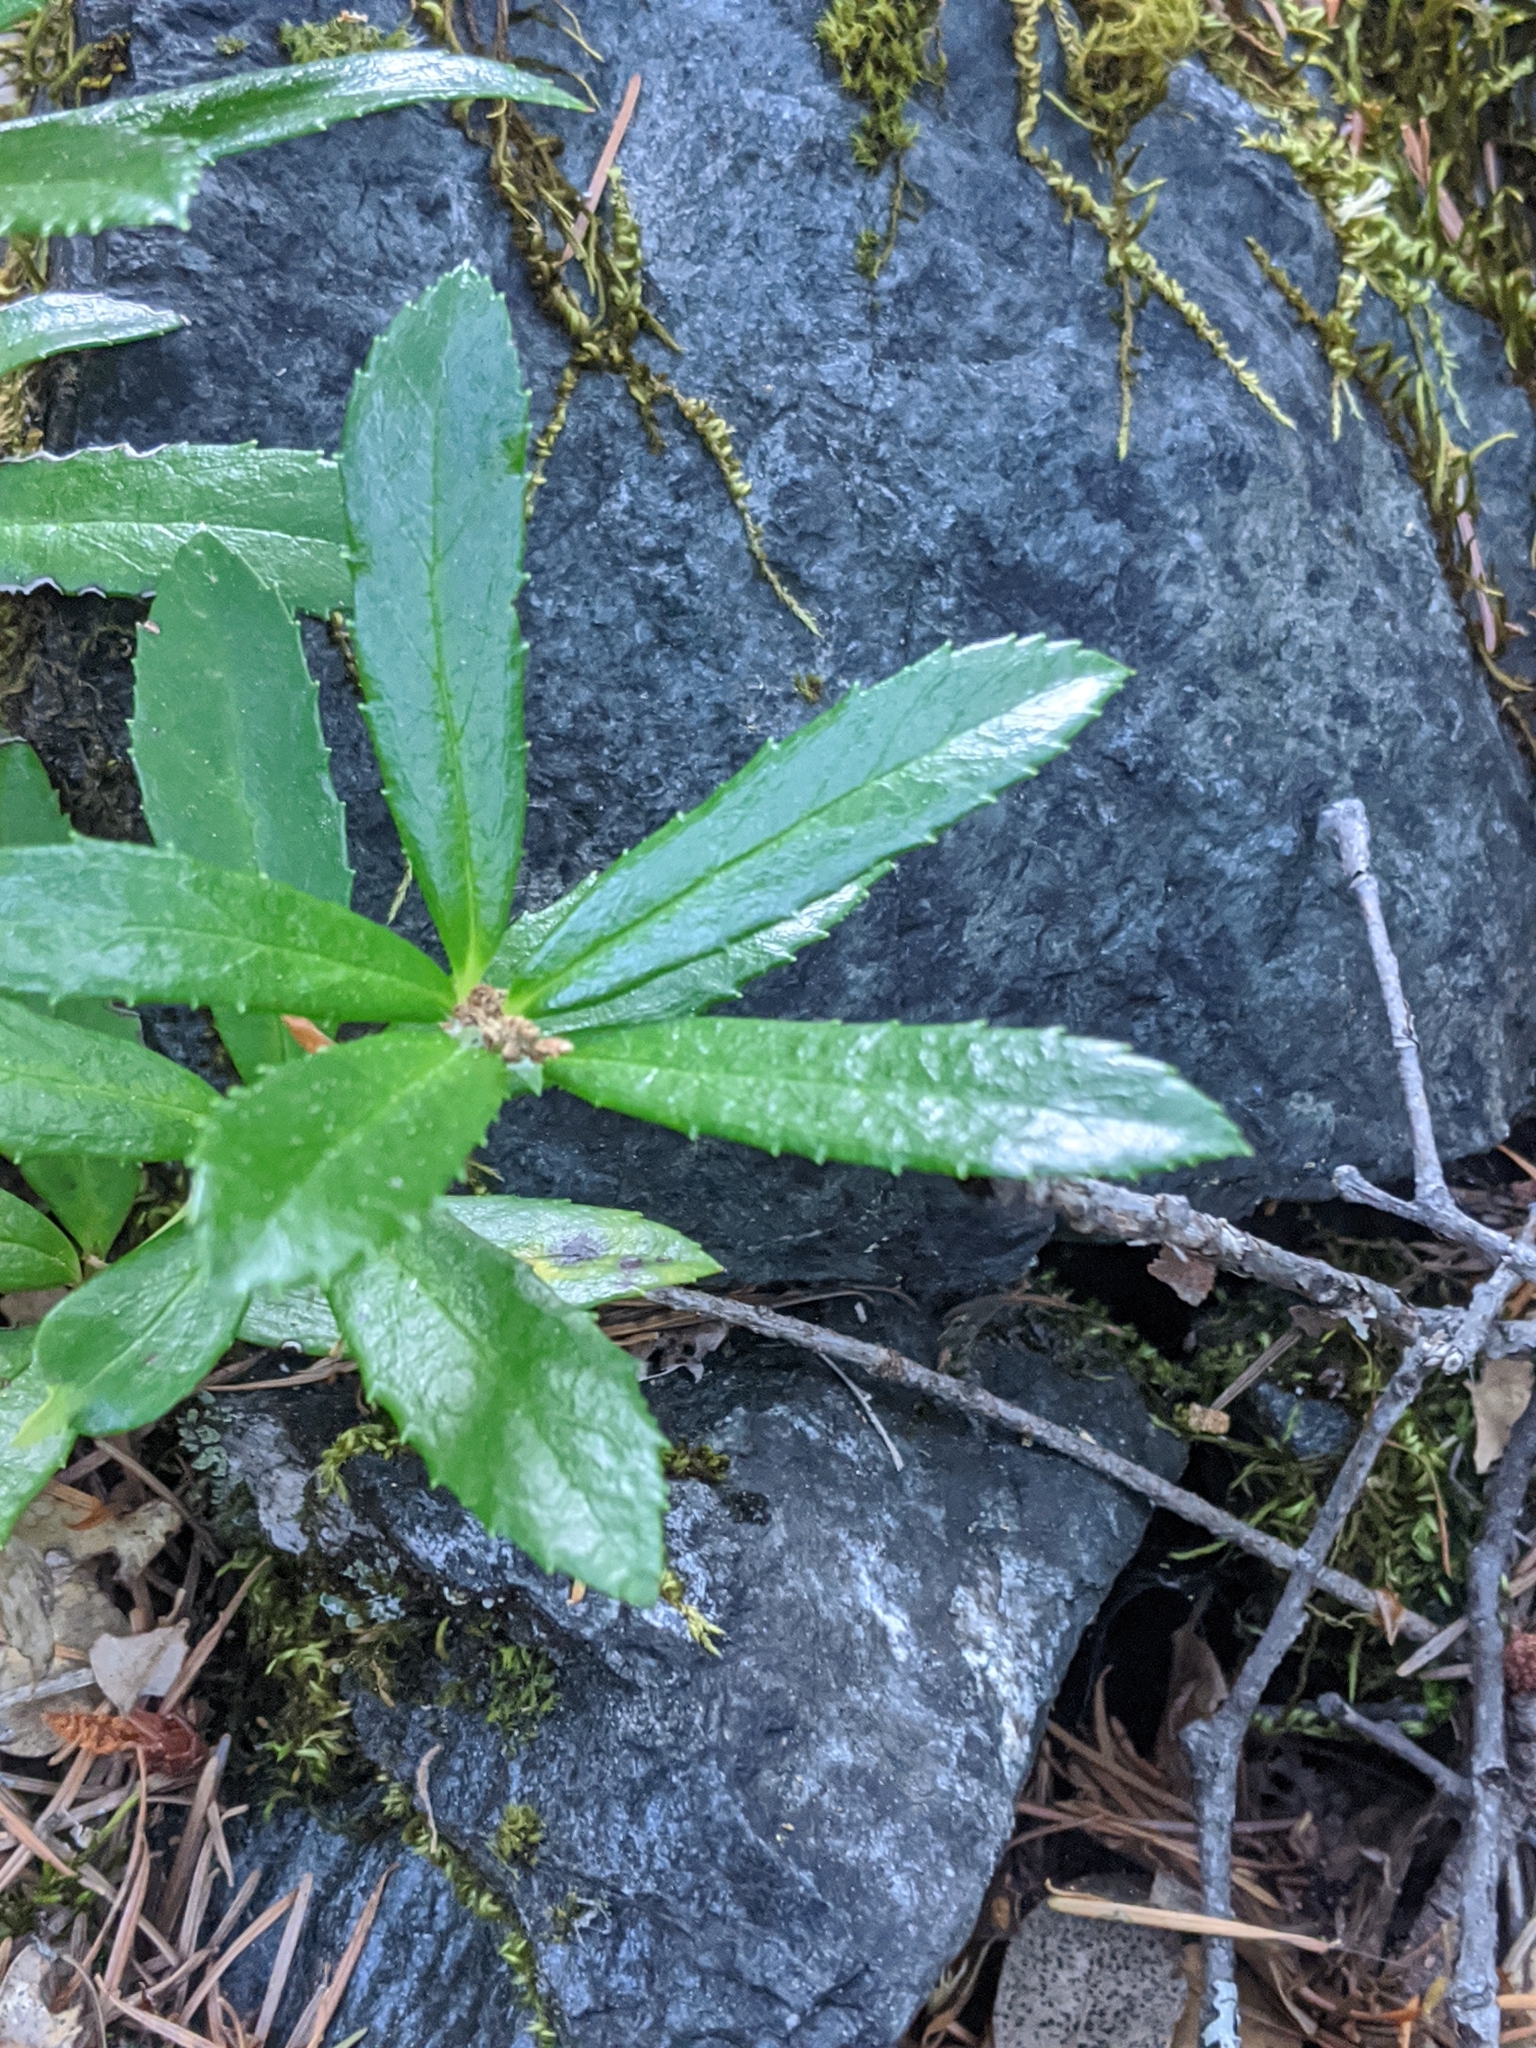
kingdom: Plantae
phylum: Tracheophyta
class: Magnoliopsida
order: Ericales
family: Ericaceae
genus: Chimaphila
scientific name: Chimaphila umbellata
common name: Pipsissewa
